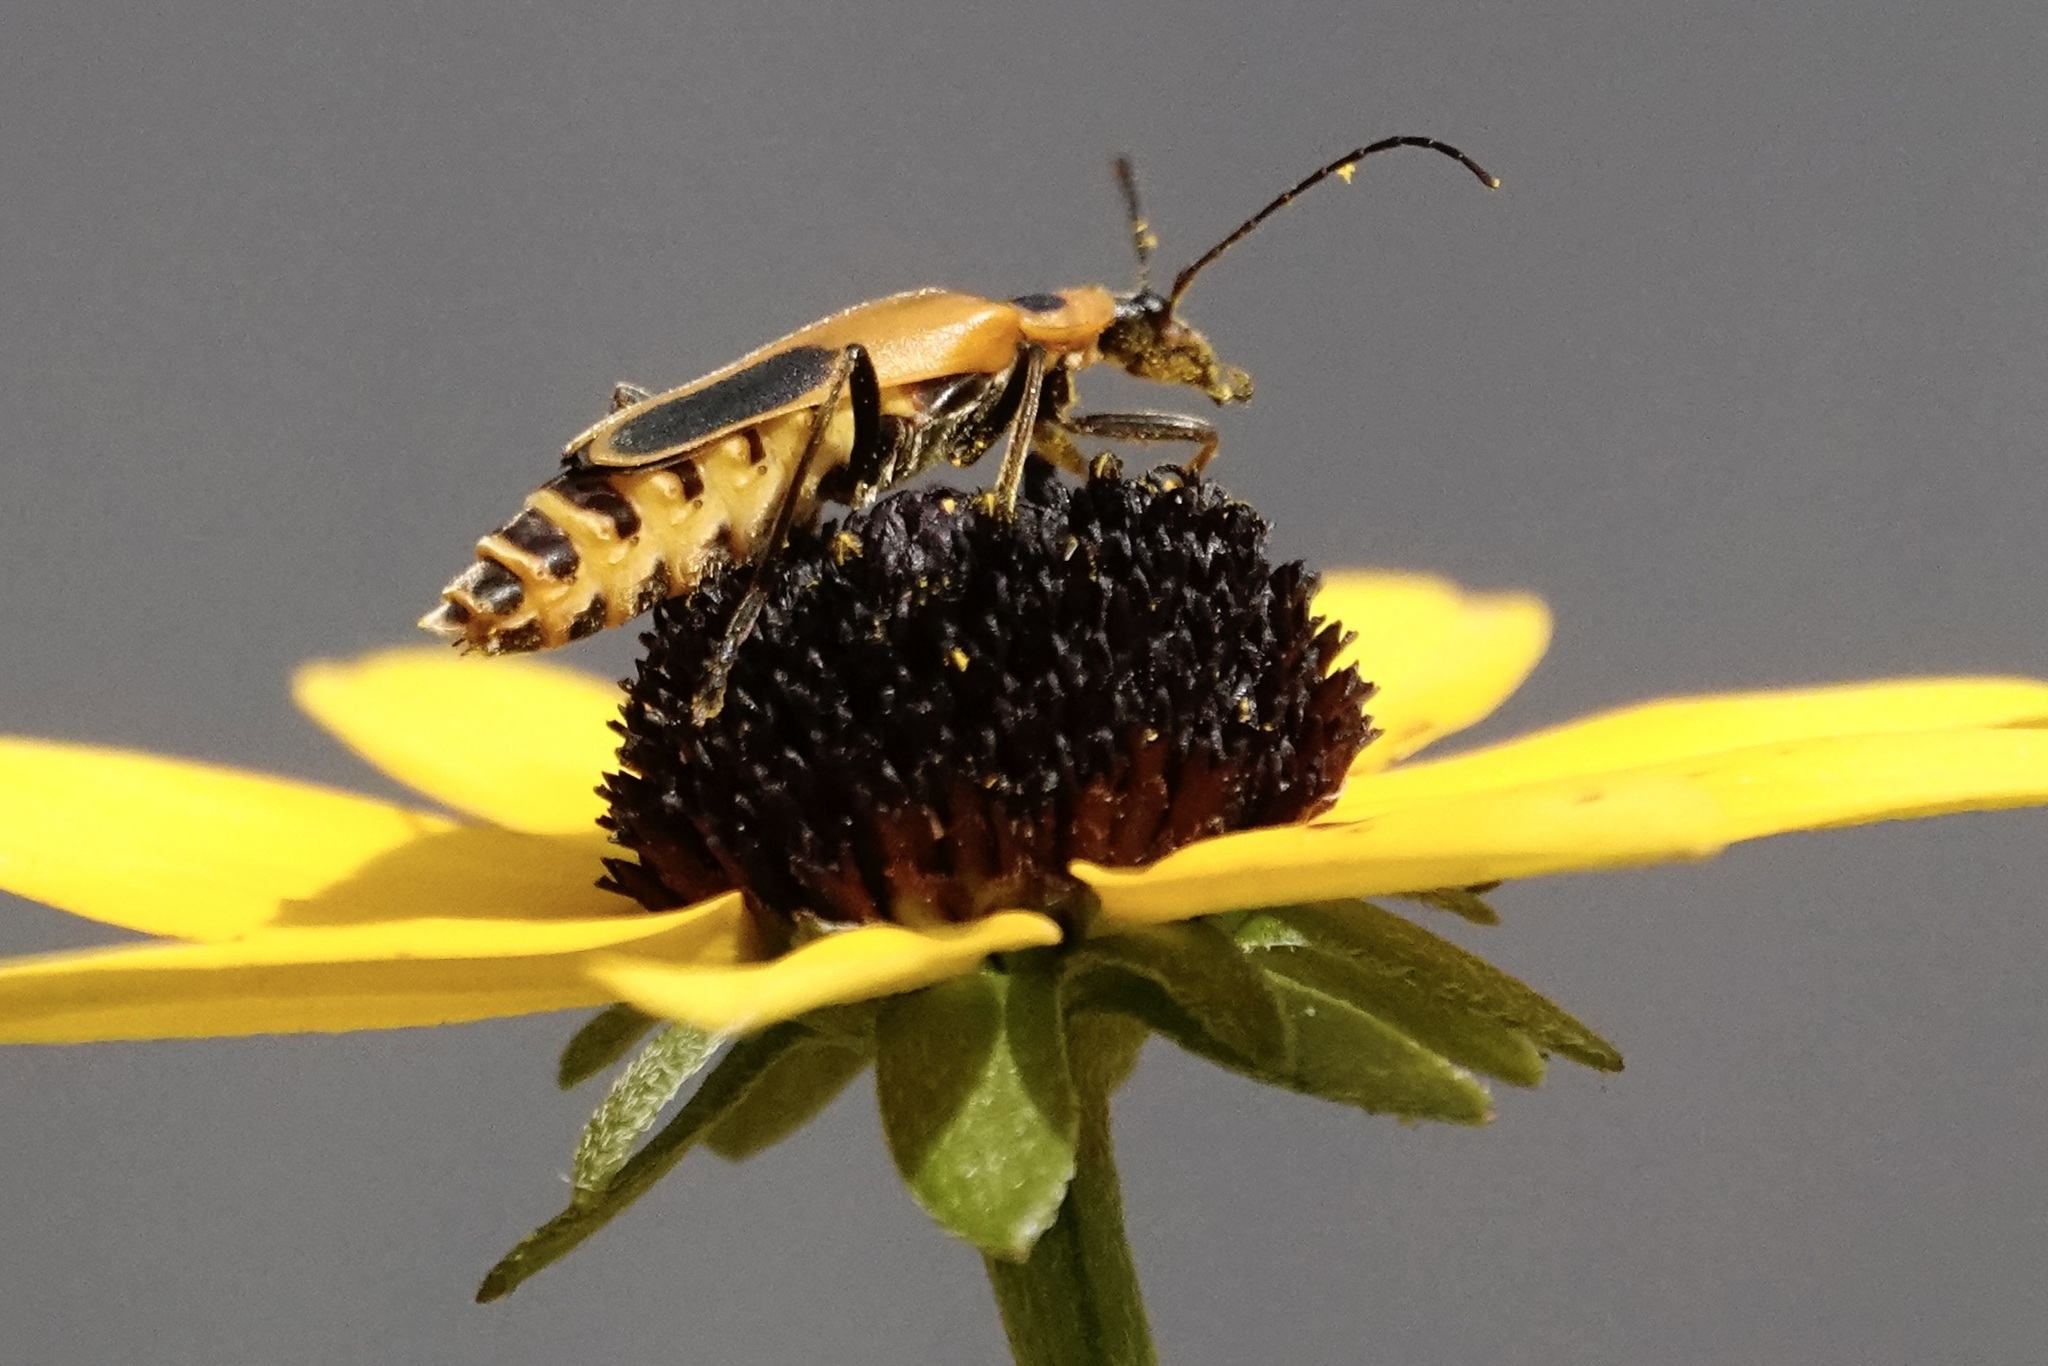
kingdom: Animalia
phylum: Arthropoda
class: Insecta
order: Coleoptera
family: Cantharidae
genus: Chauliognathus
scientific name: Chauliognathus pensylvanicus
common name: Goldenrod soldier beetle
